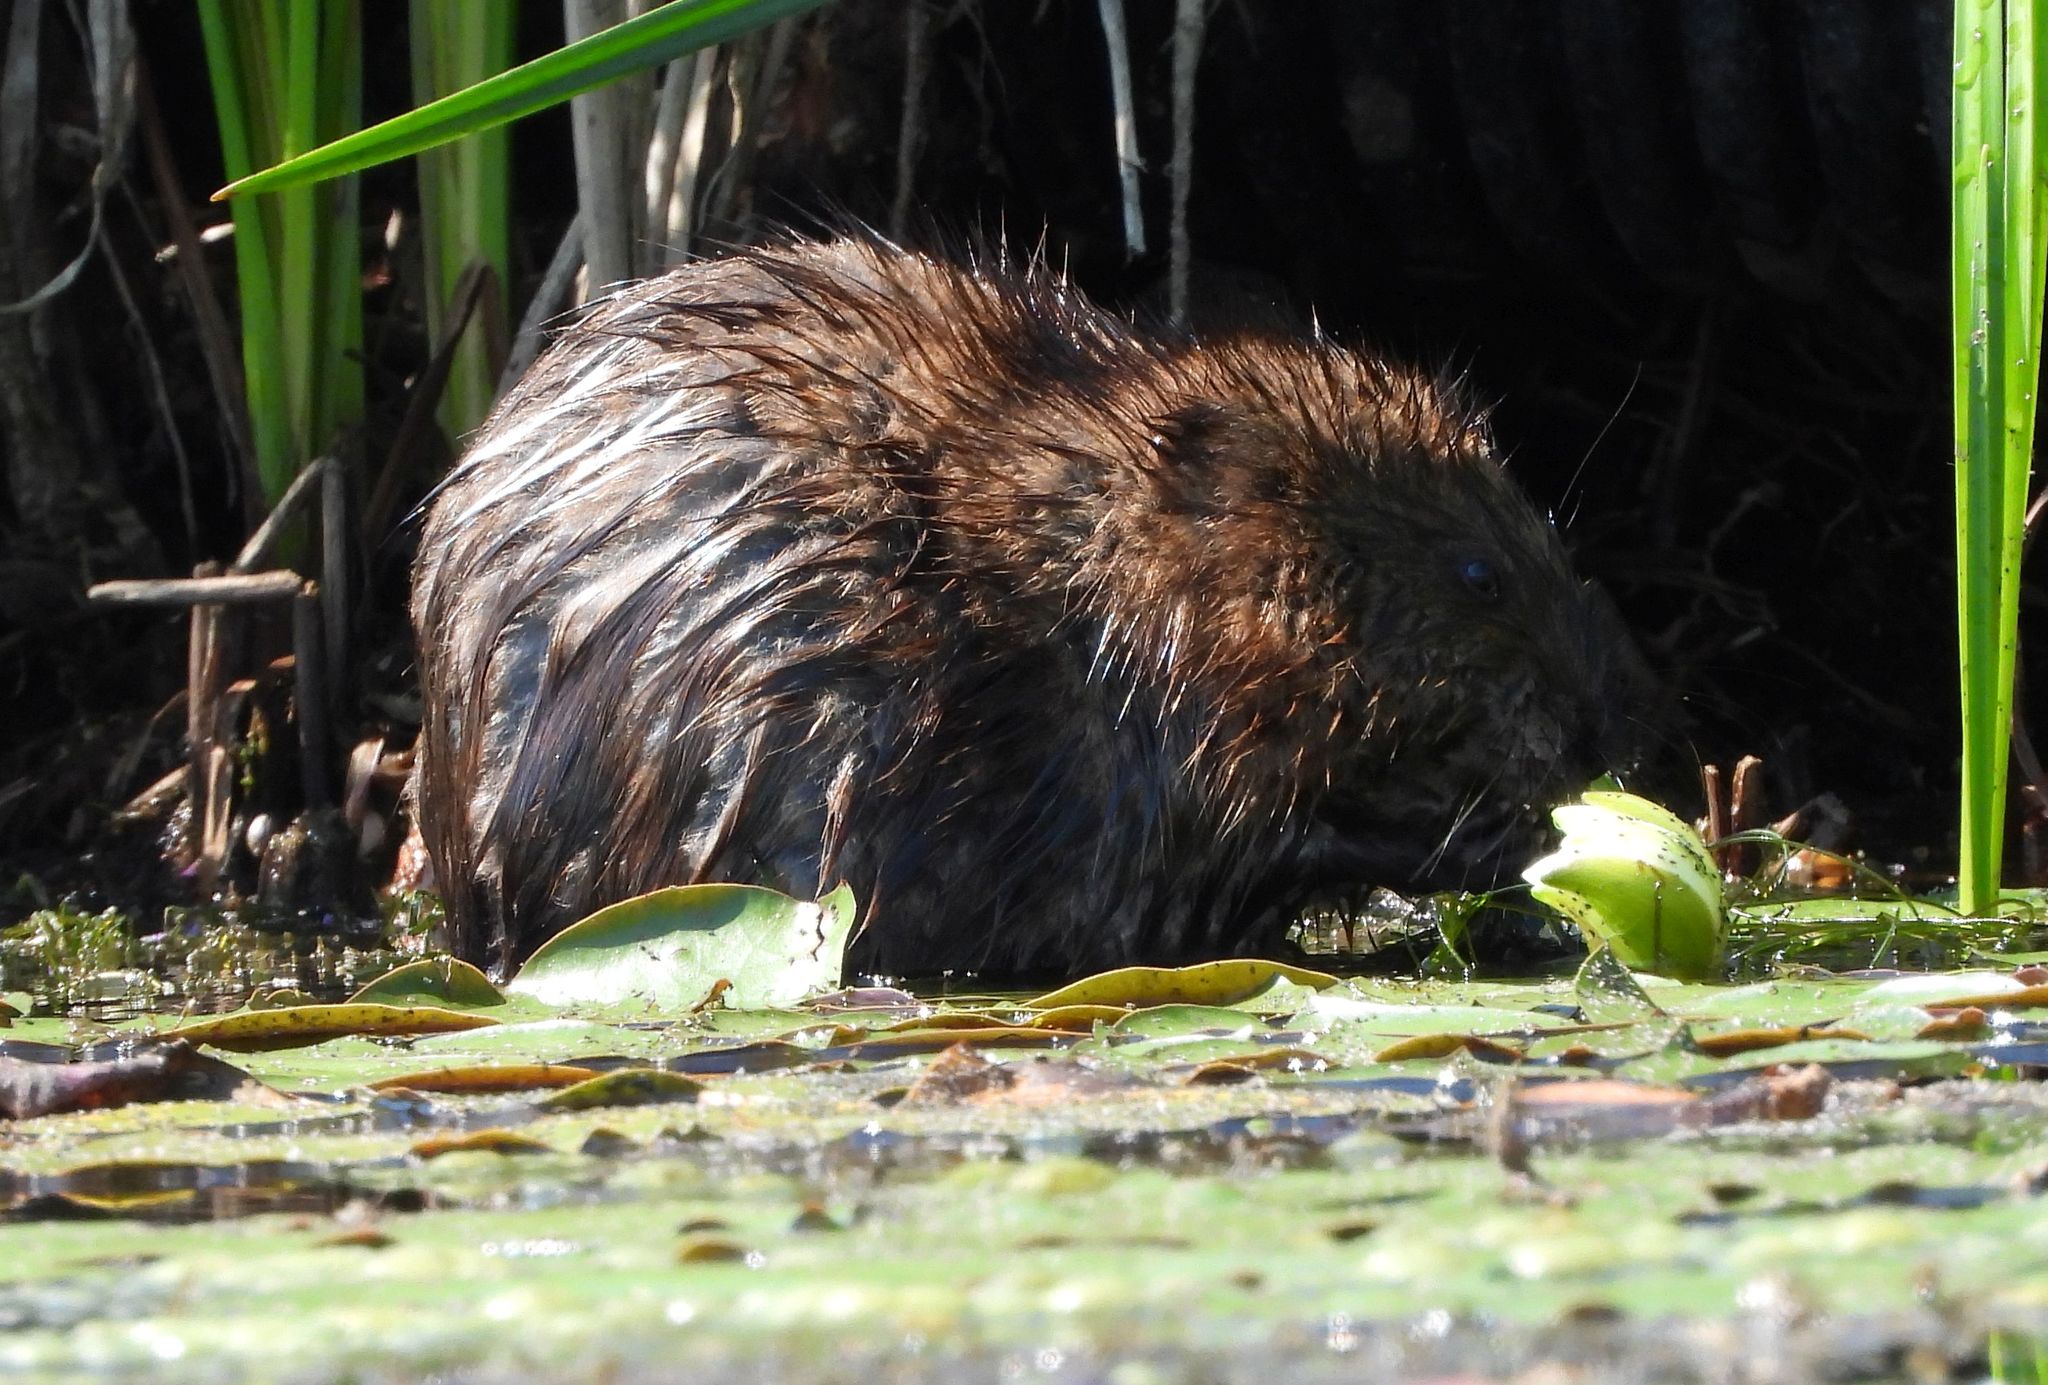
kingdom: Animalia
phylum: Chordata
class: Mammalia
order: Rodentia
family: Cricetidae
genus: Ondatra
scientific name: Ondatra zibethicus
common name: Muskrat
